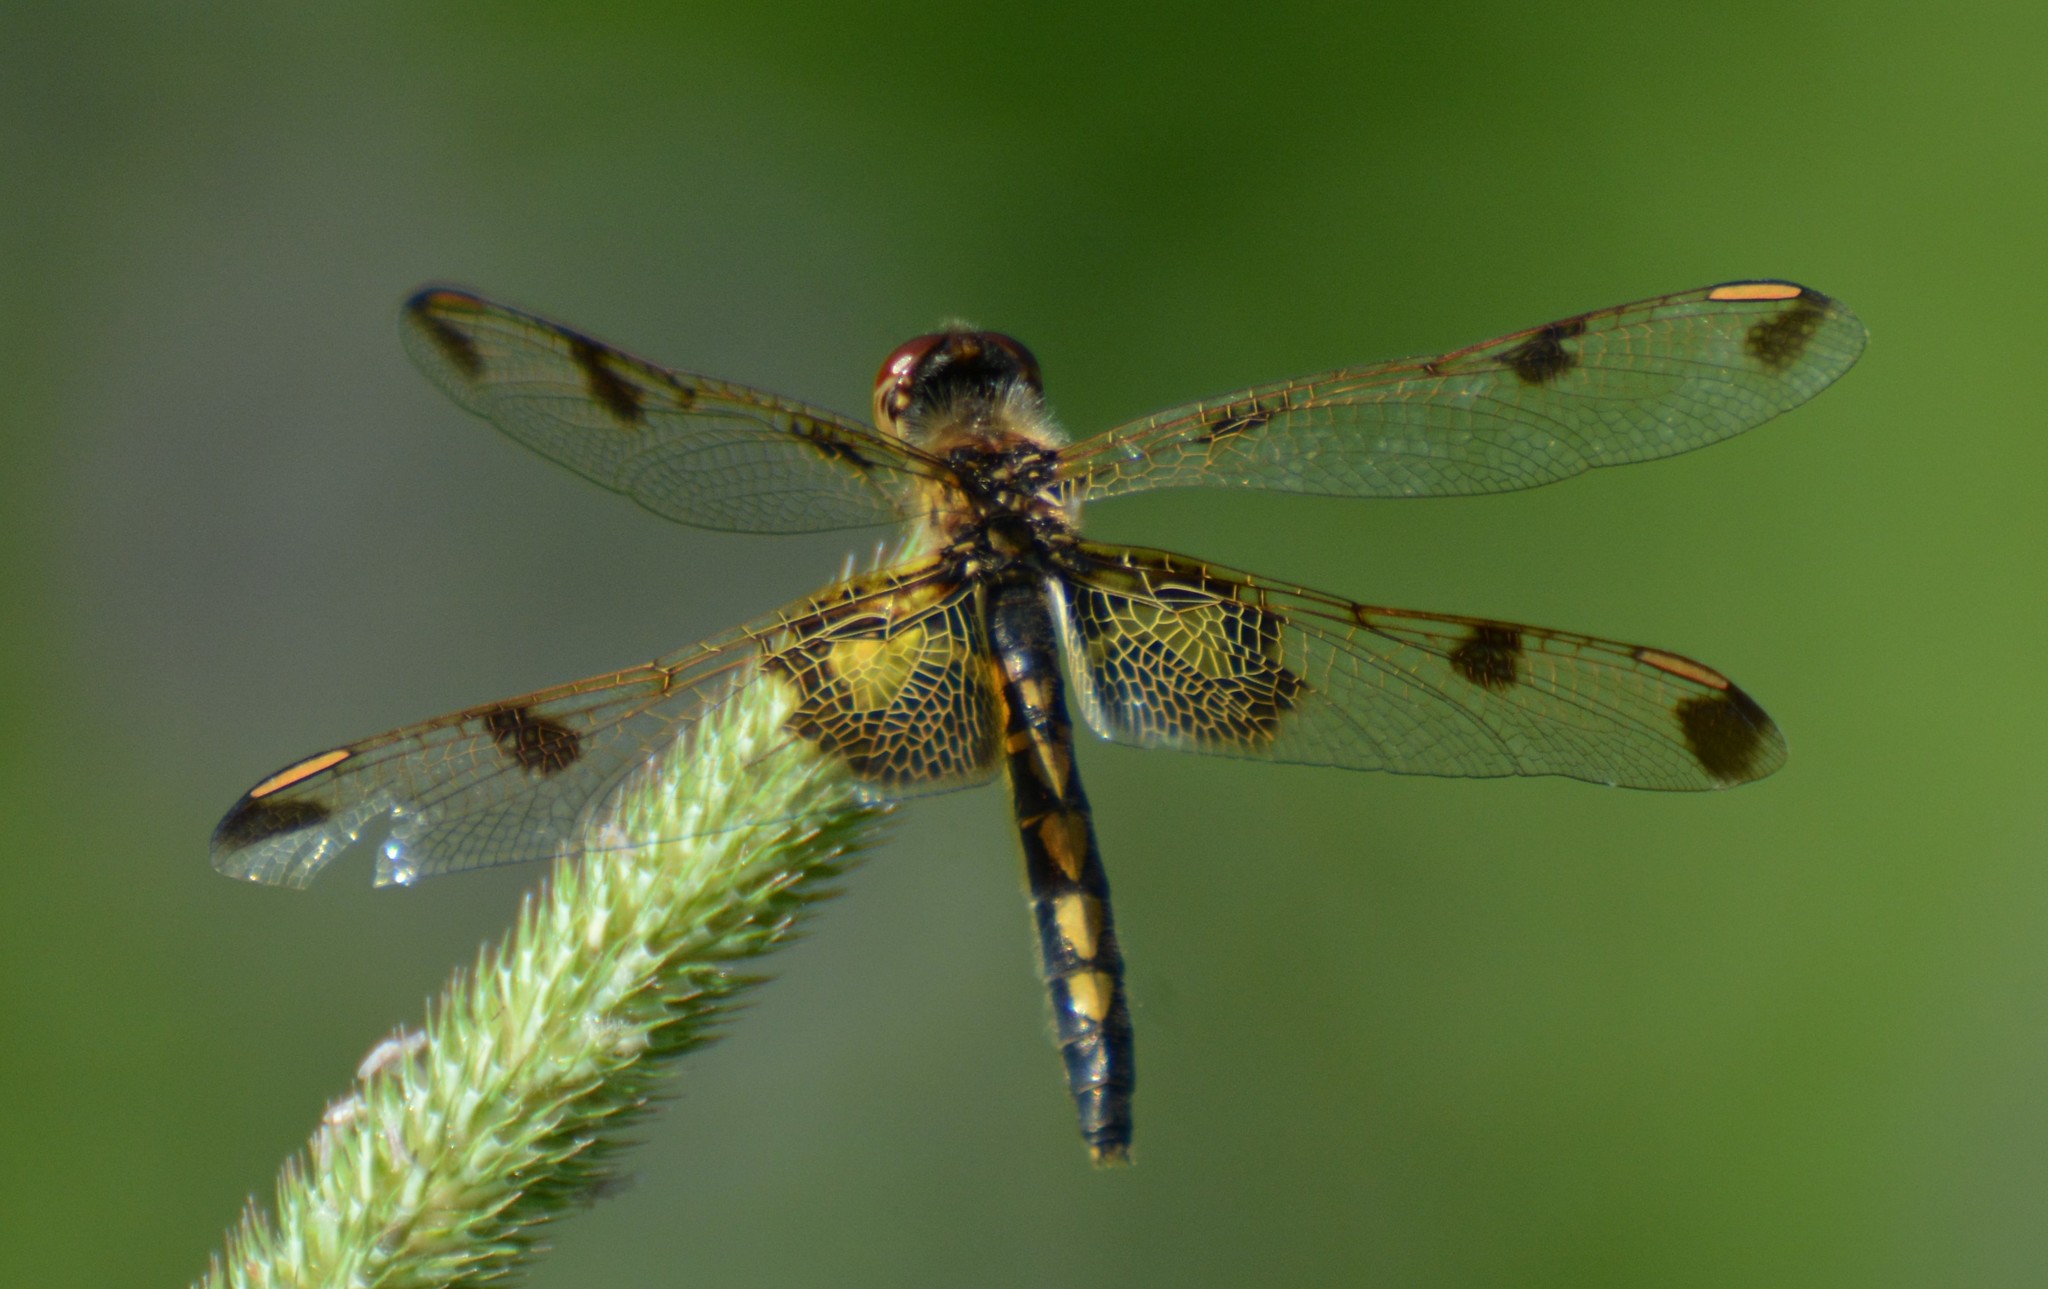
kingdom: Animalia
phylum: Arthropoda
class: Insecta
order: Odonata
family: Libellulidae
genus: Celithemis
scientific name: Celithemis elisa
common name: Calico pennant
